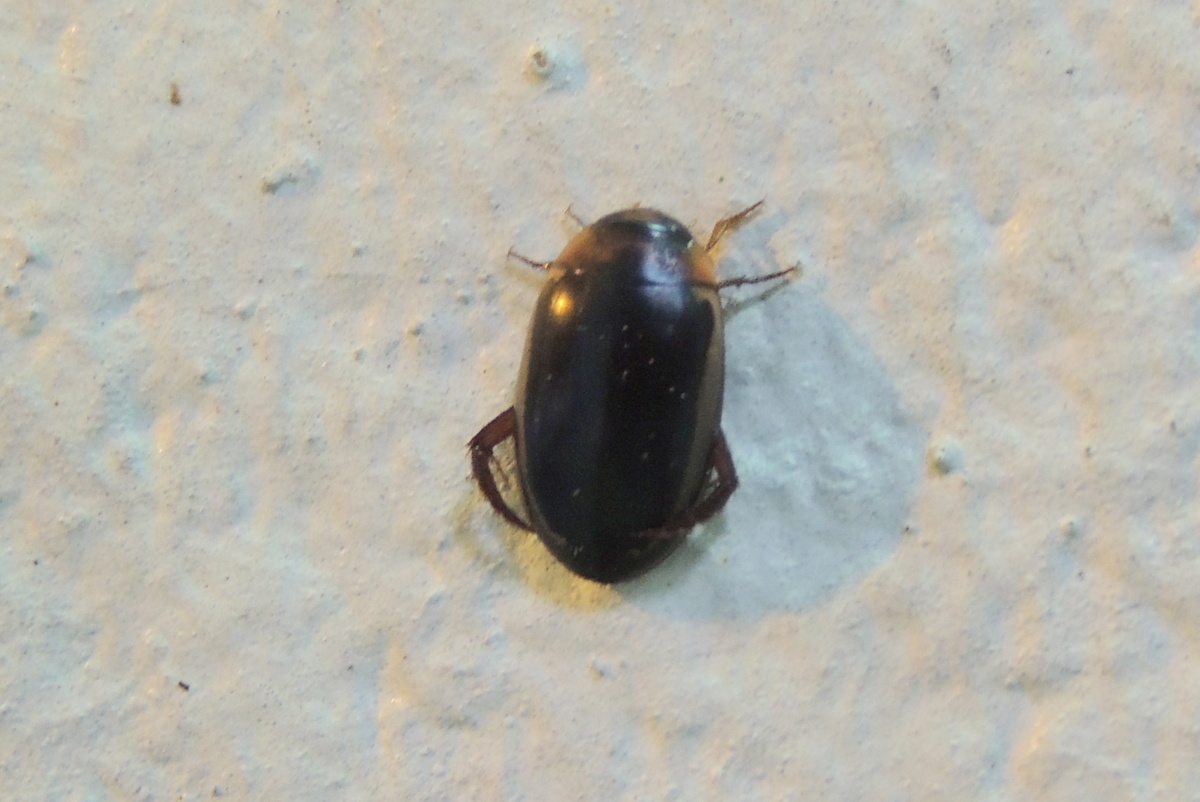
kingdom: Animalia
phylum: Arthropoda
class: Insecta
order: Coleoptera
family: Dytiscidae
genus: Hydaticus
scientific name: Hydaticus bimarginatus
